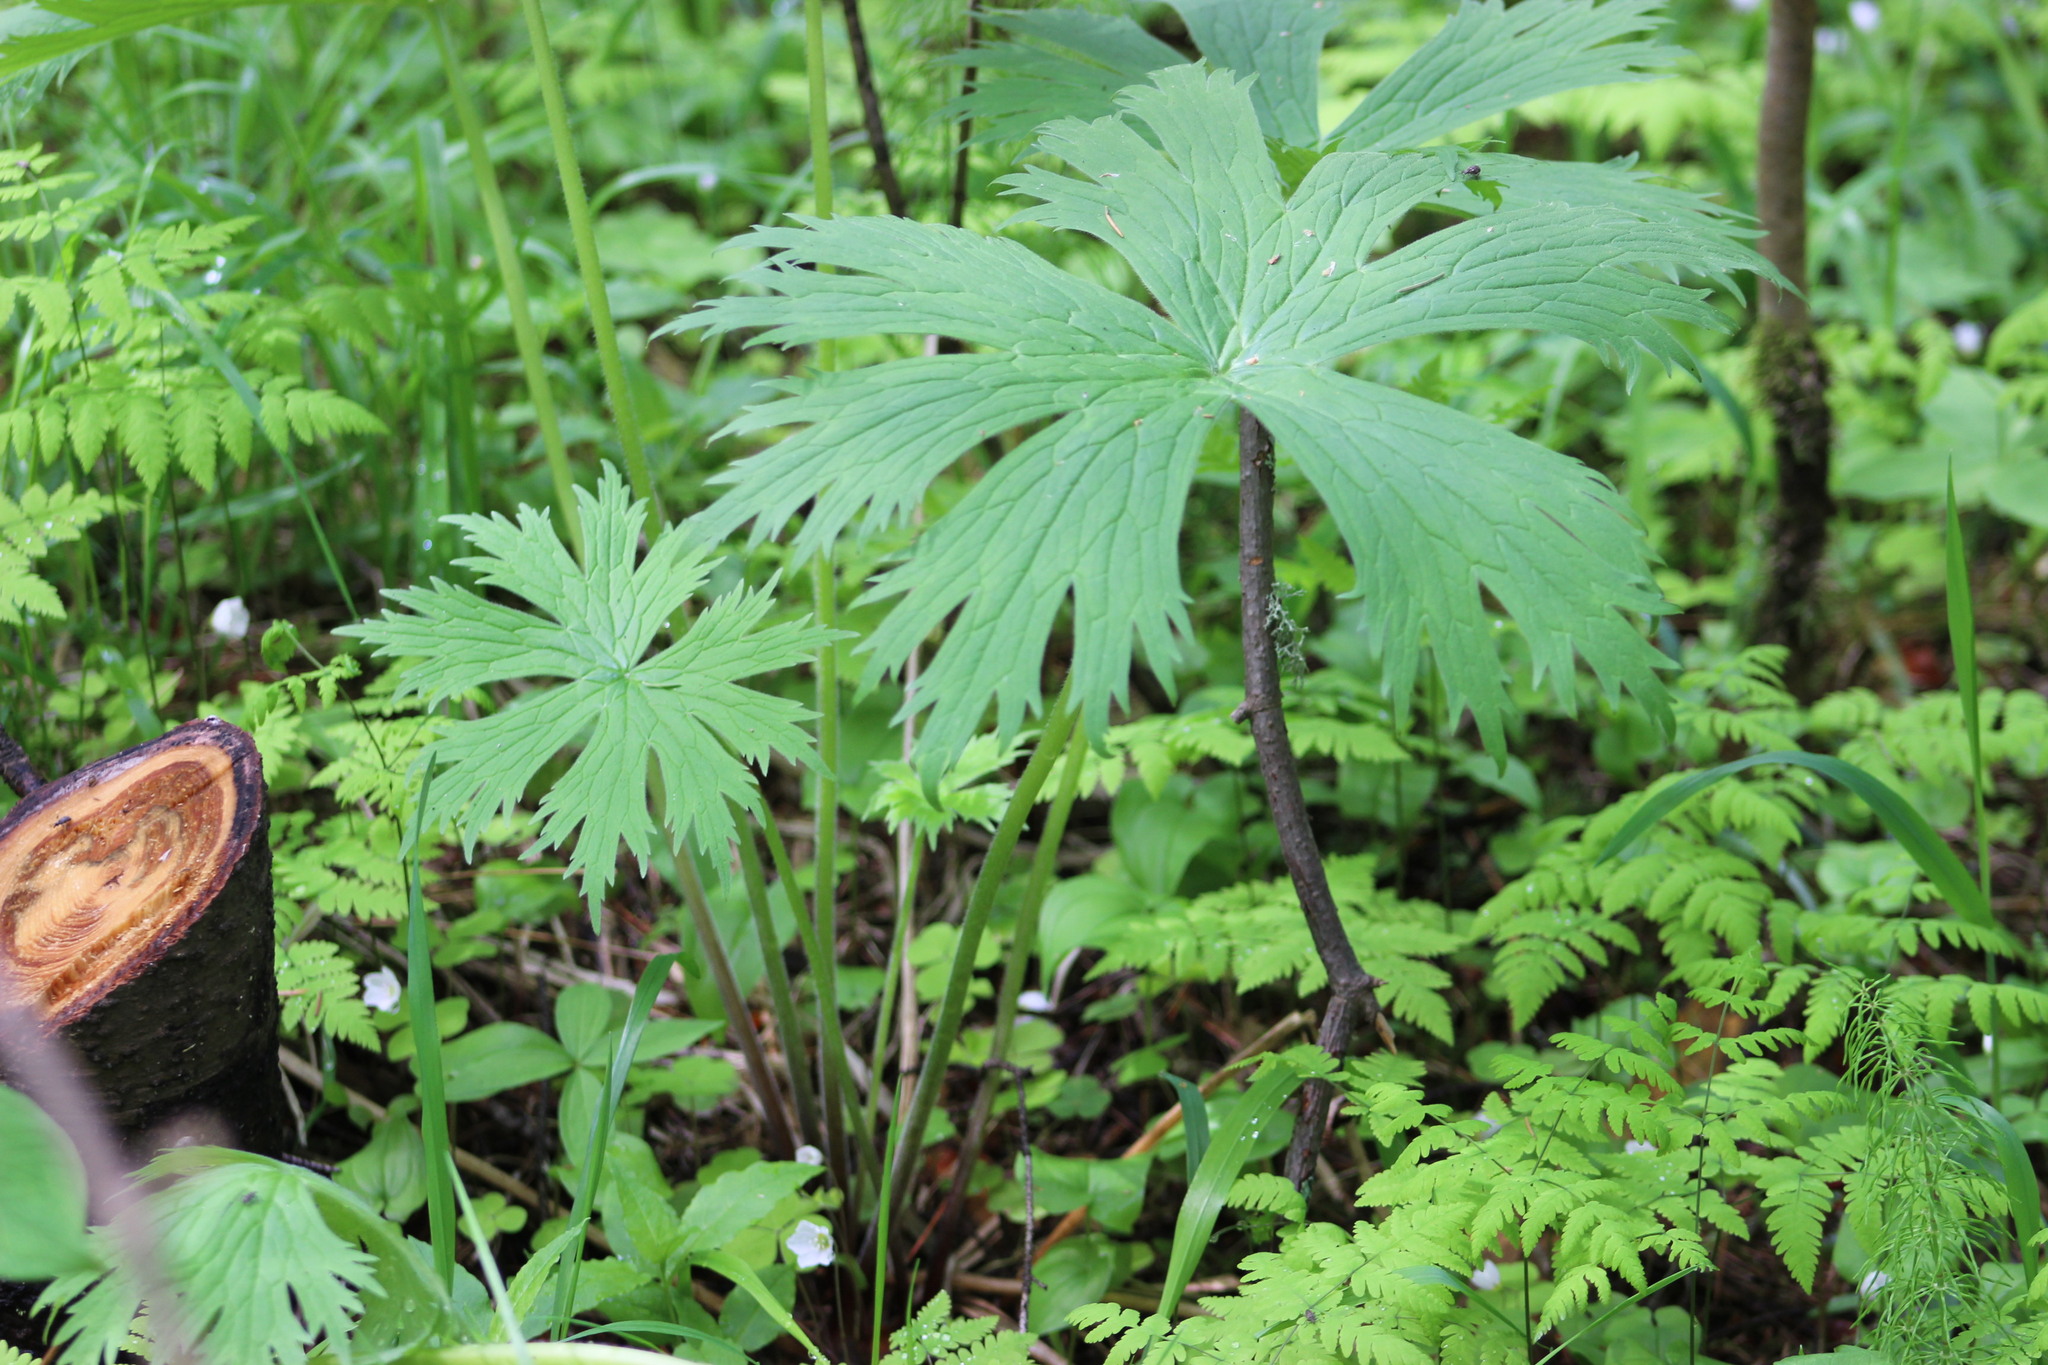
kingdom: Plantae
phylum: Tracheophyta
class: Magnoliopsida
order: Ranunculales
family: Ranunculaceae
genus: Aconitum
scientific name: Aconitum septentrionale
